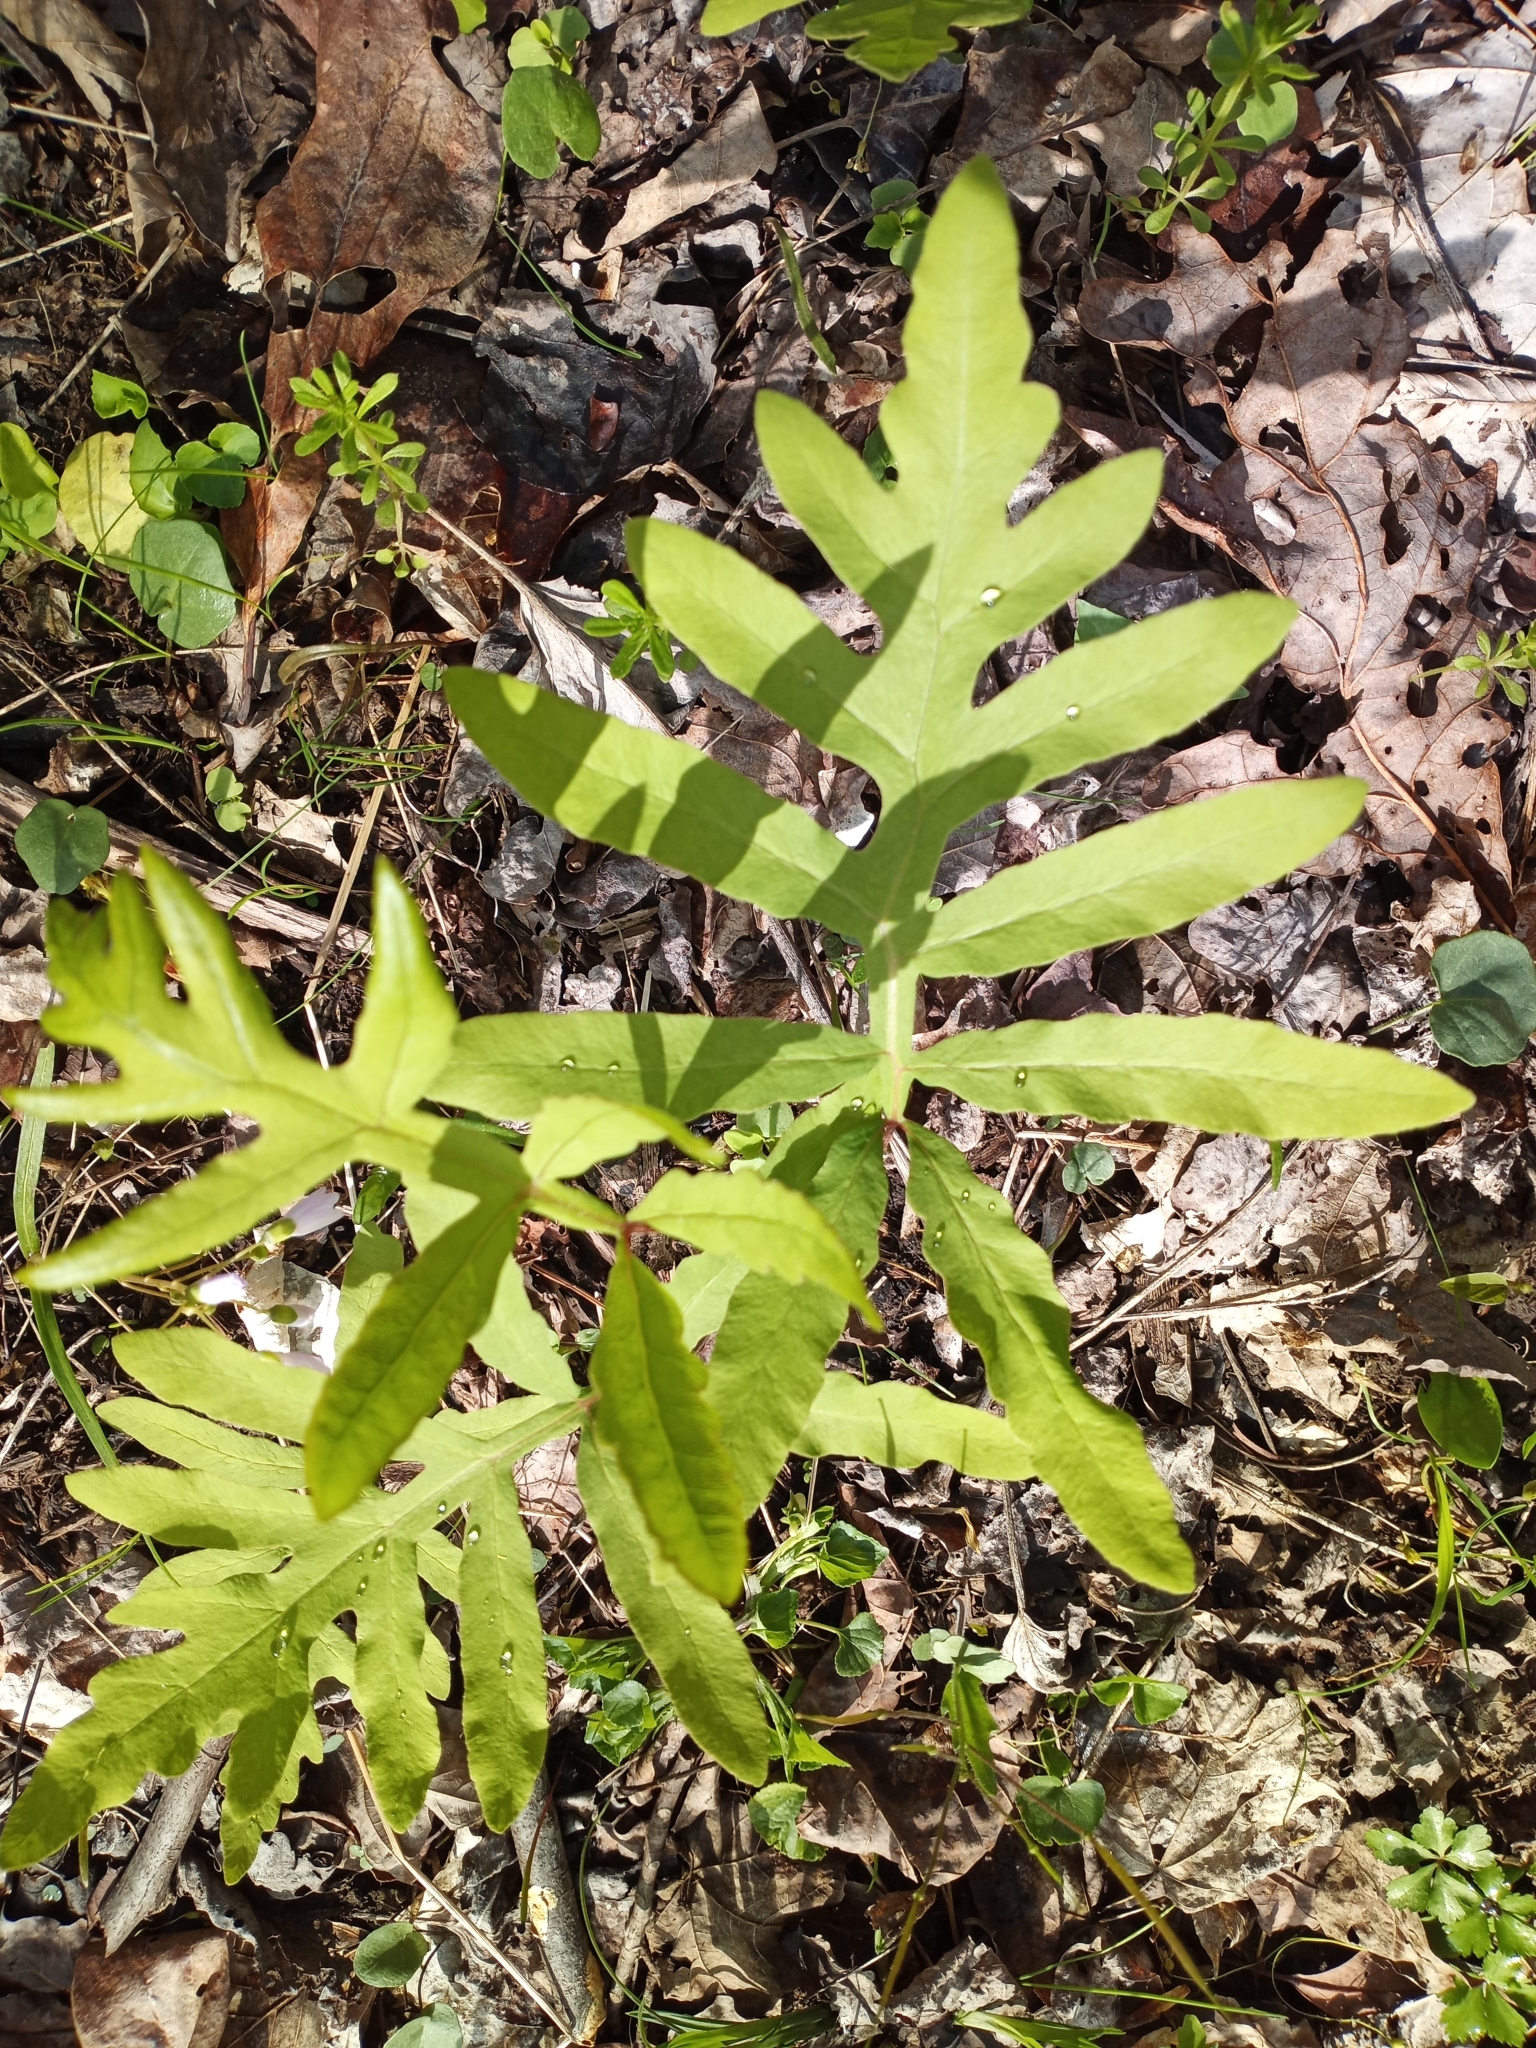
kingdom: Plantae
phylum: Tracheophyta
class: Polypodiopsida
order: Polypodiales
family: Onocleaceae
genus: Onoclea
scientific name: Onoclea sensibilis
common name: Sensitive fern
